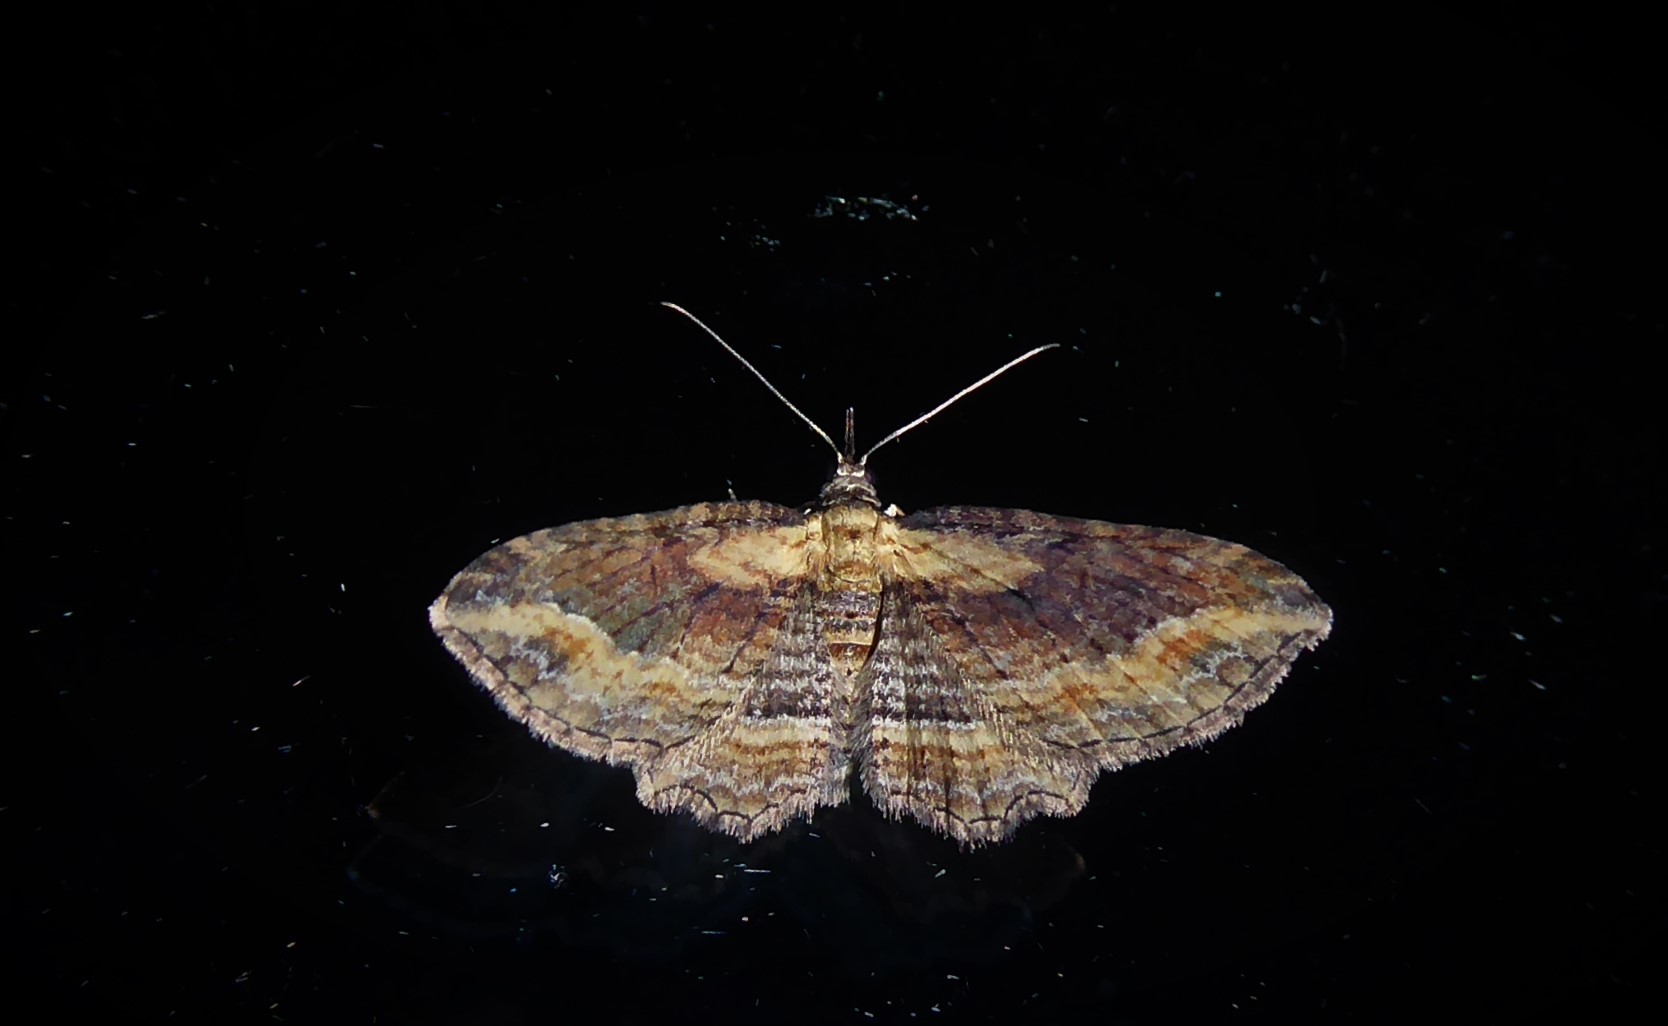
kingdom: Animalia
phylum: Arthropoda
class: Insecta
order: Lepidoptera
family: Geometridae
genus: Chloroclystis
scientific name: Chloroclystis filata
